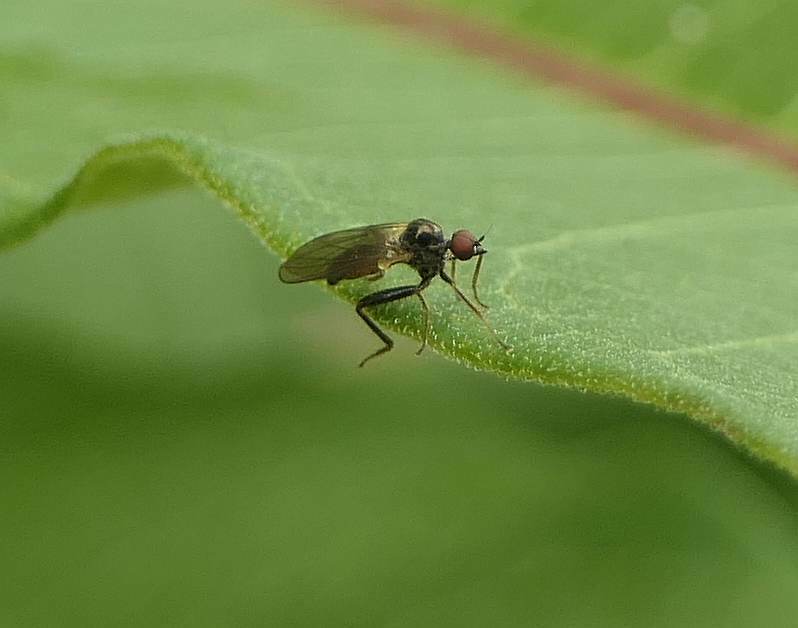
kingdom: Animalia
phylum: Arthropoda
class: Insecta
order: Diptera
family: Hybotidae
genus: Hybos
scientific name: Hybos reversus
